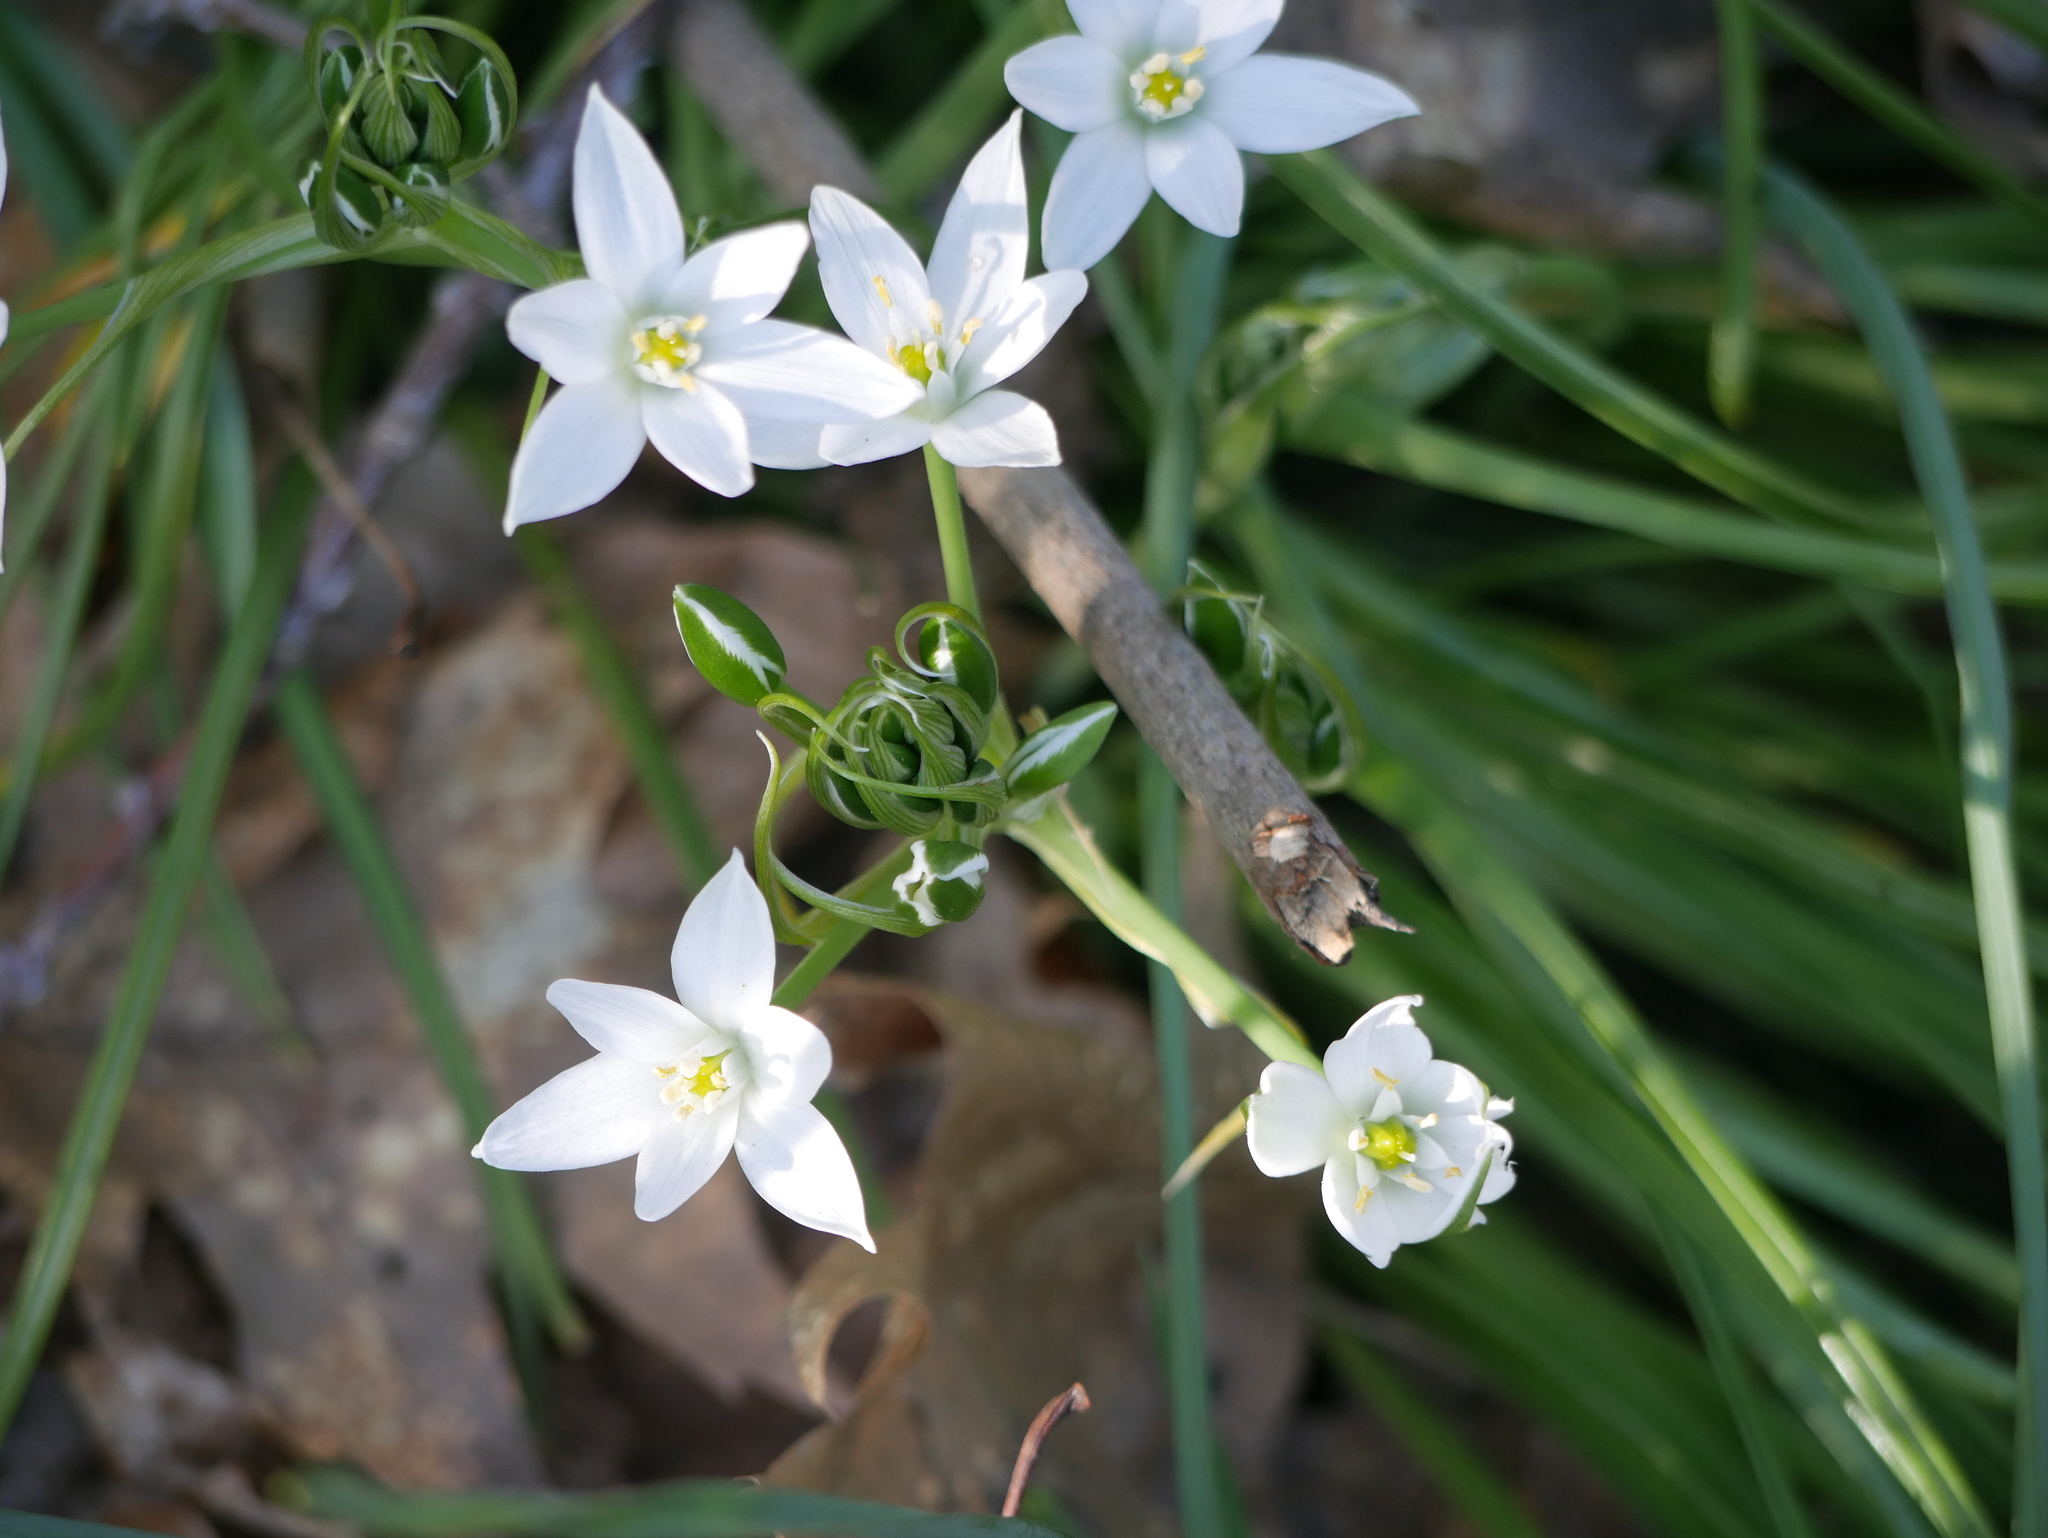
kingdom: Plantae
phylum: Tracheophyta
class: Liliopsida
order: Asparagales
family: Asparagaceae
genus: Ornithogalum
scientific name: Ornithogalum umbellatum
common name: Garden star-of-bethlehem
